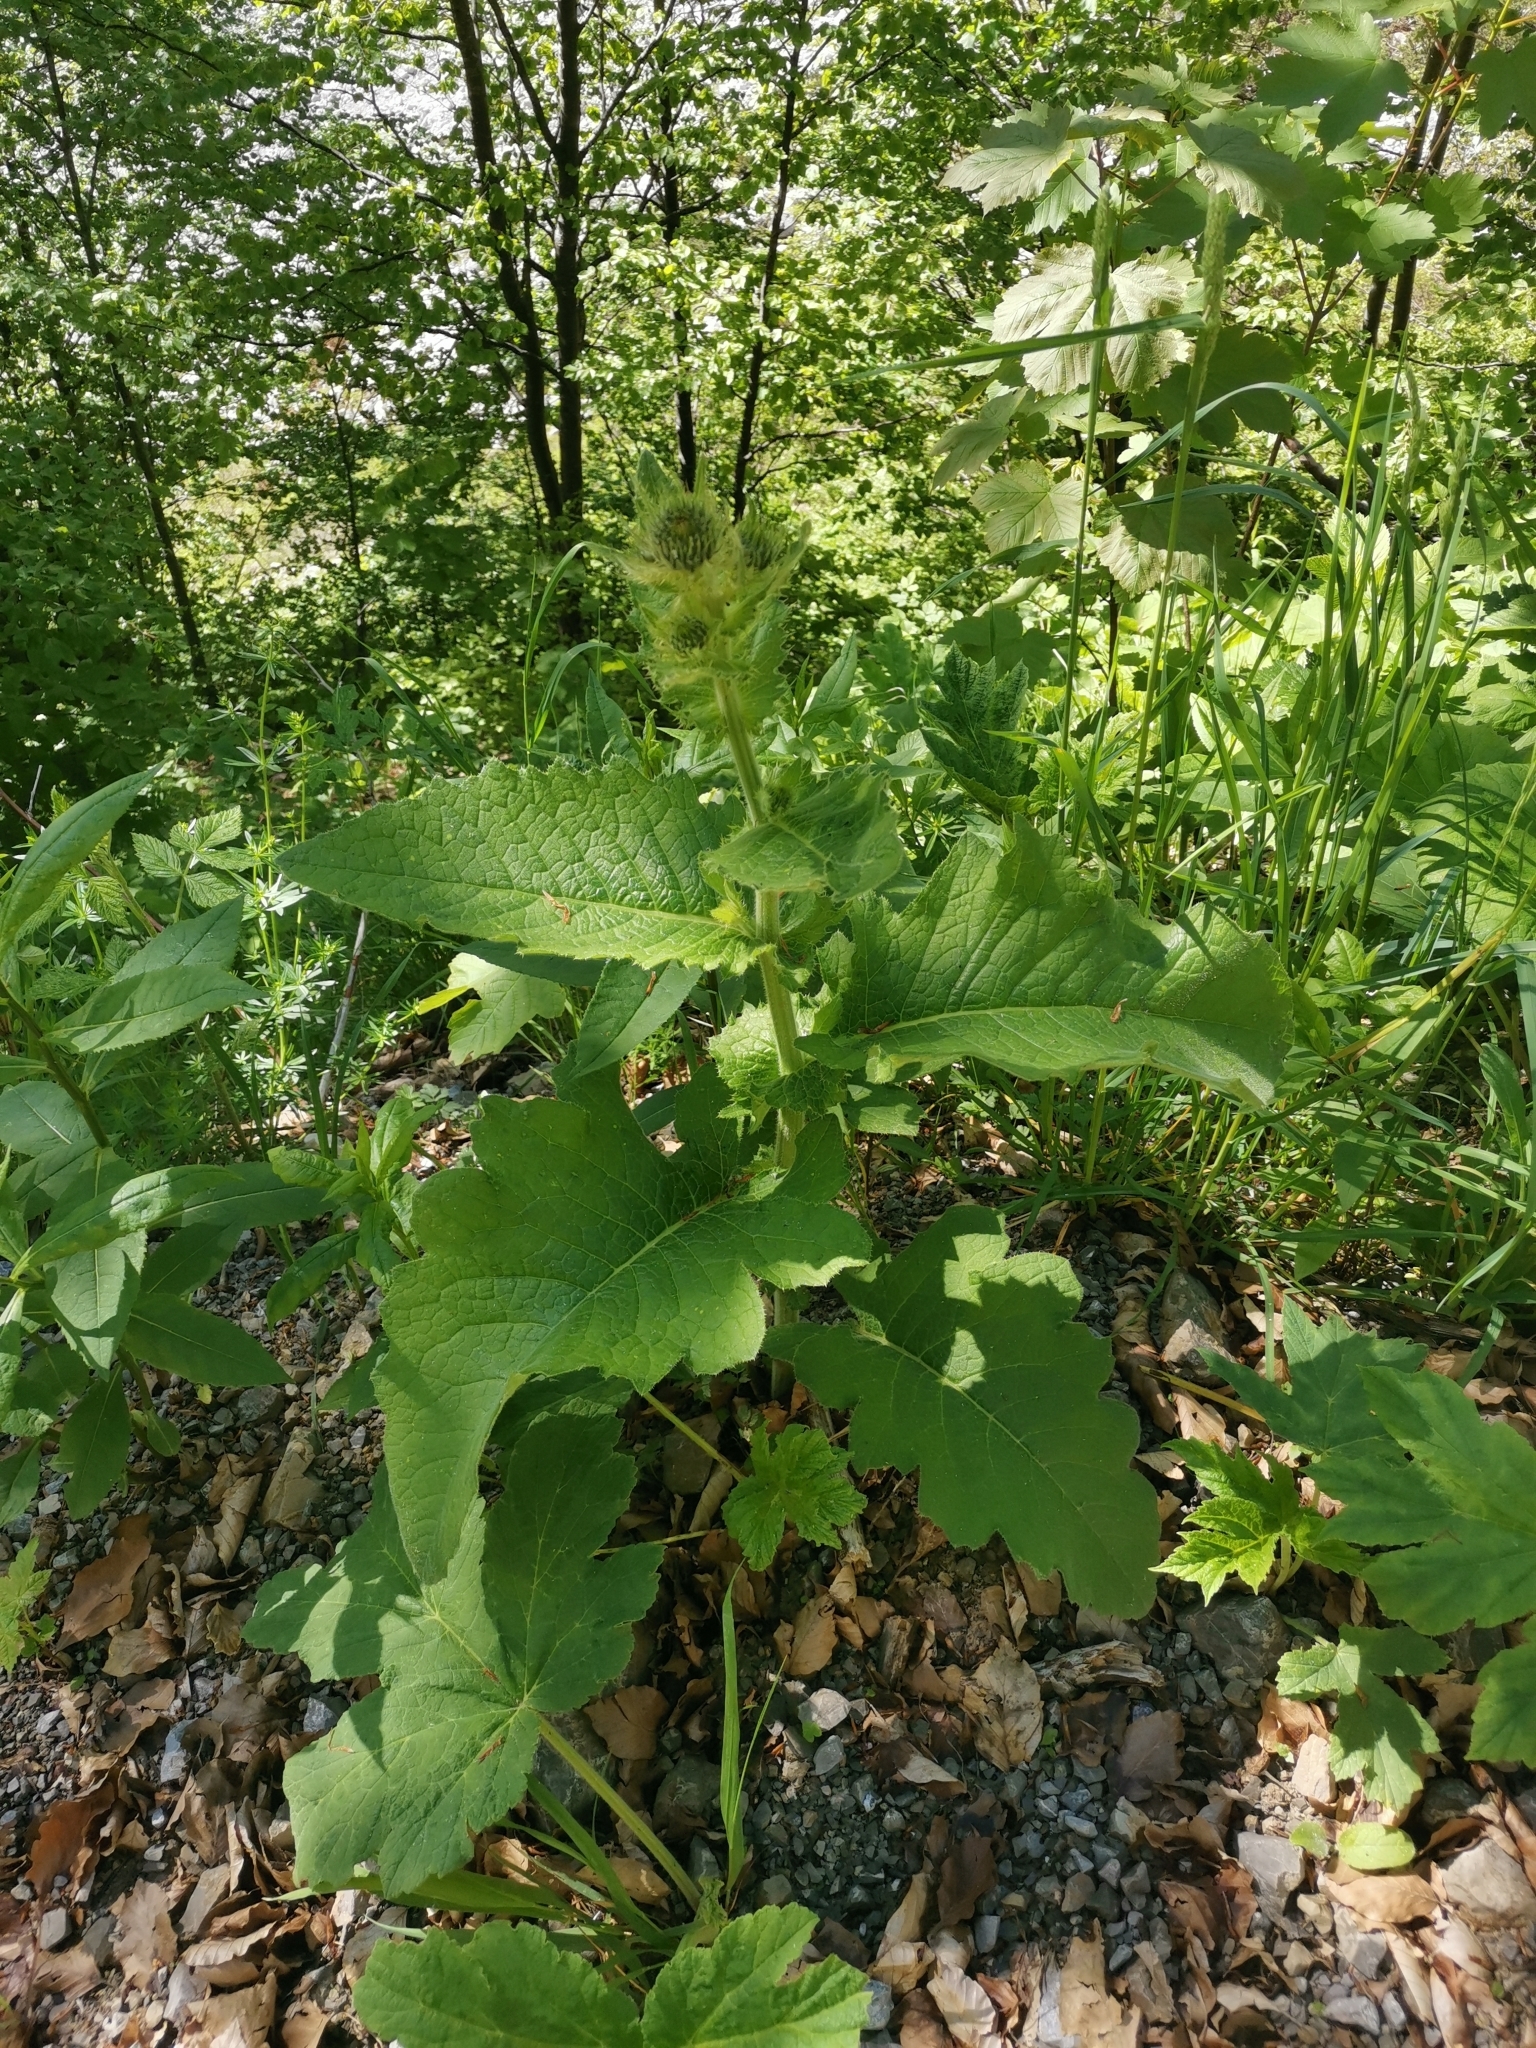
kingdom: Plantae
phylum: Tracheophyta
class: Magnoliopsida
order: Asterales
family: Asteraceae
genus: Cirsium
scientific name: Cirsium carniolicum
